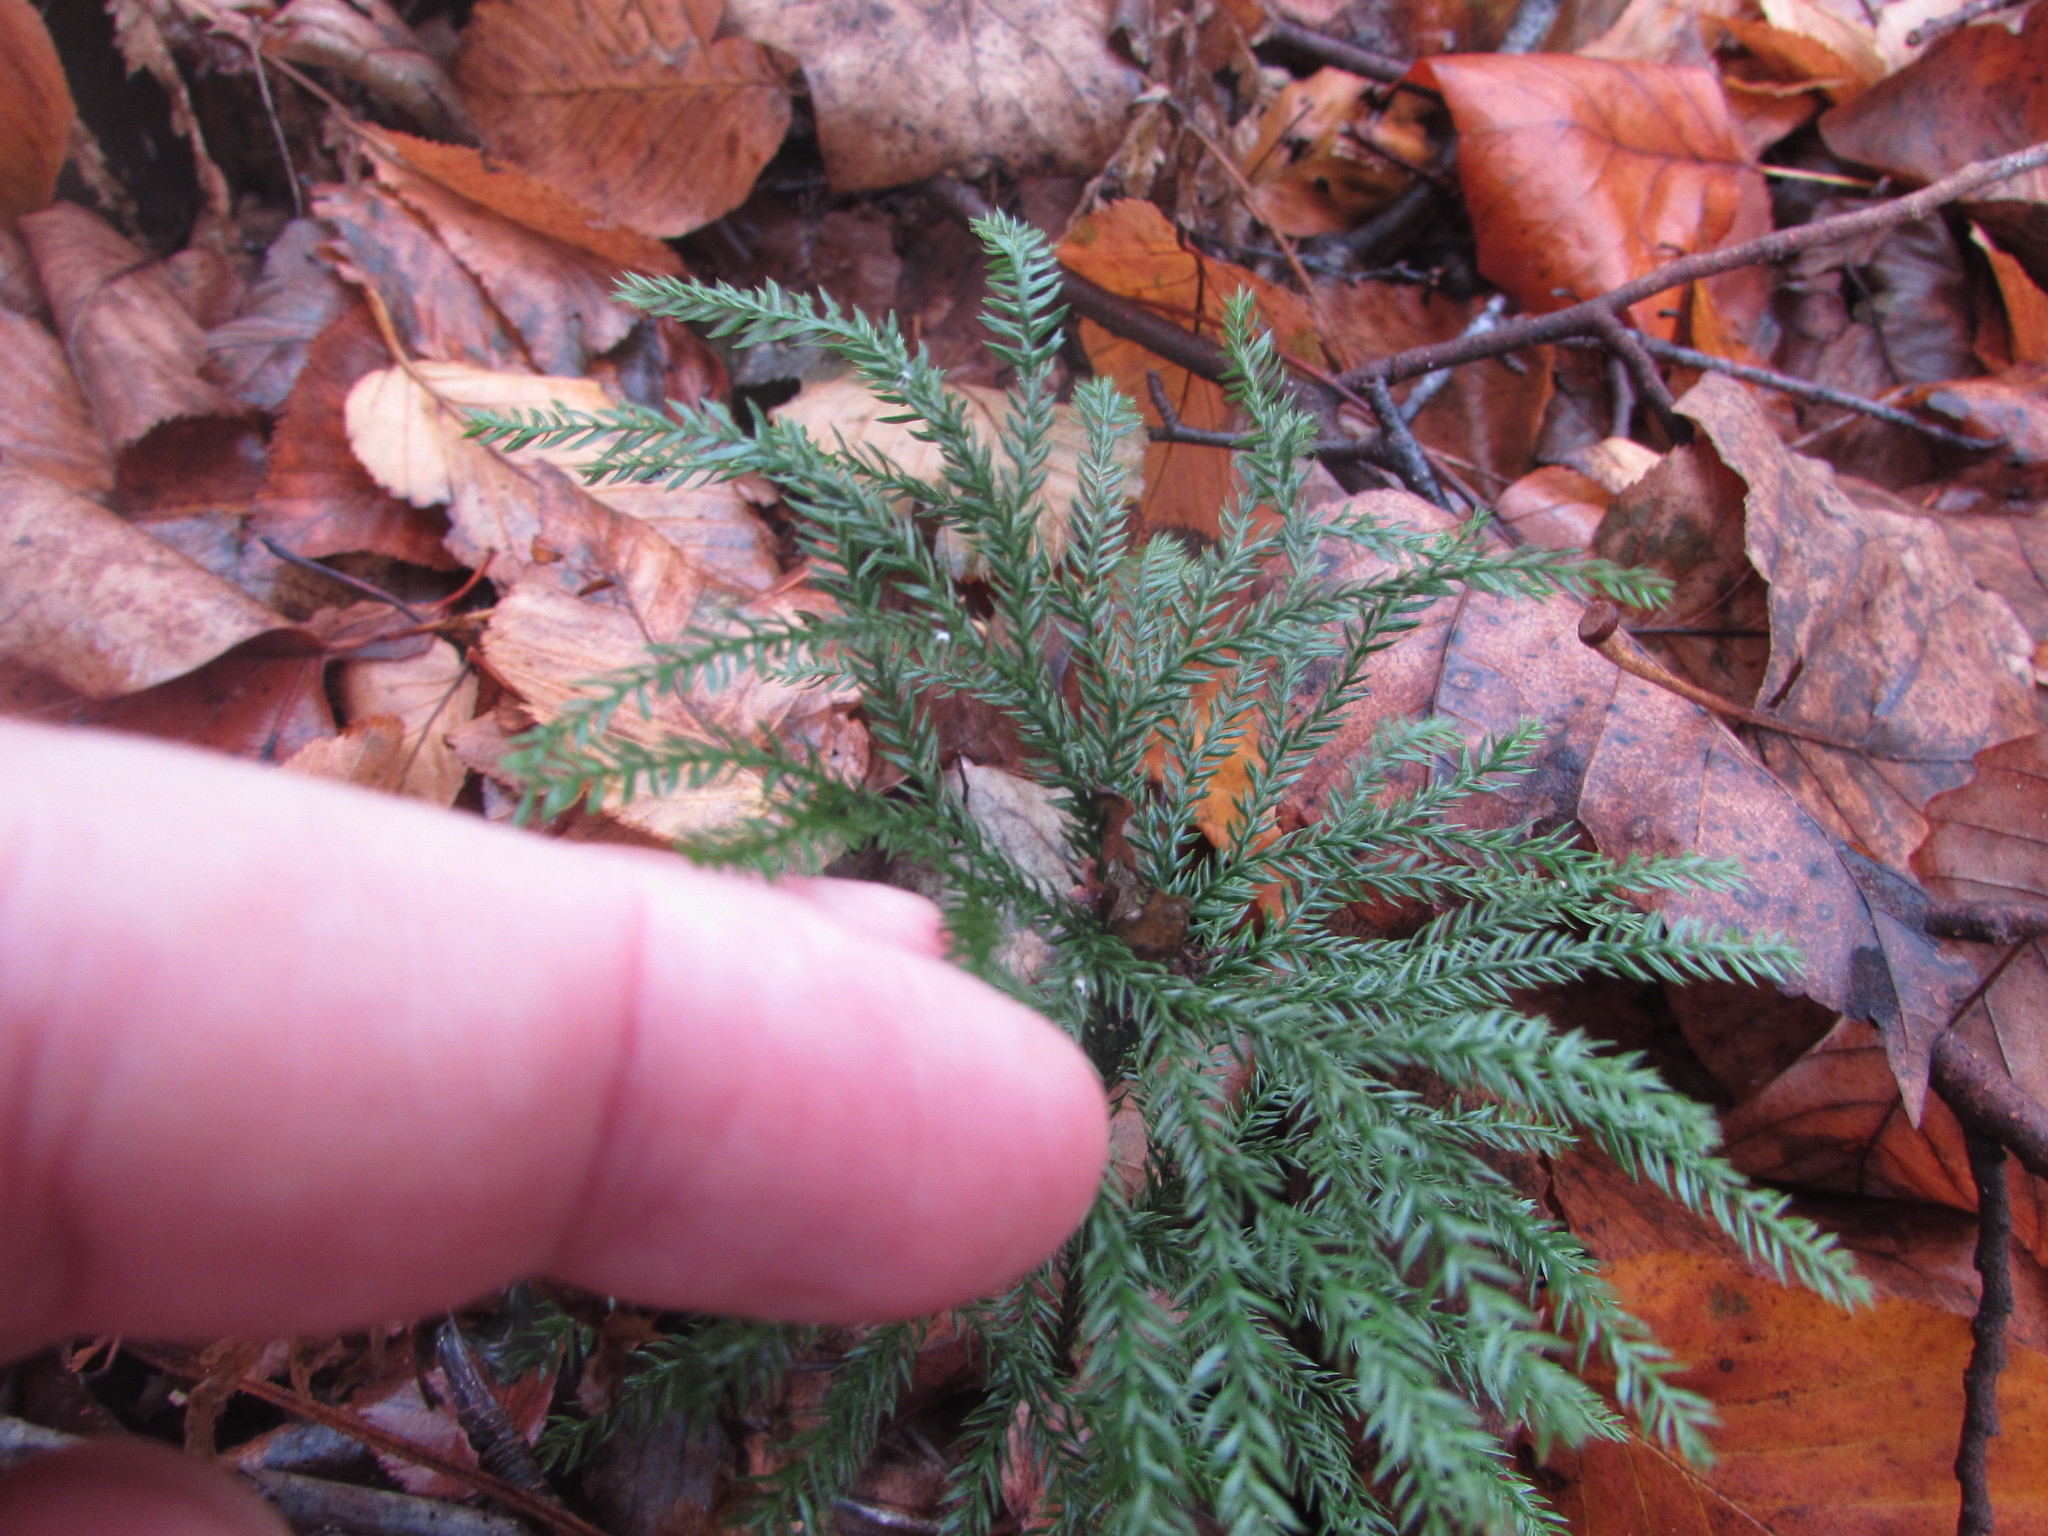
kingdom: Plantae
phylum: Tracheophyta
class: Lycopodiopsida
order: Lycopodiales
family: Lycopodiaceae
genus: Dendrolycopodium
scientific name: Dendrolycopodium obscurum
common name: Common ground-pine
